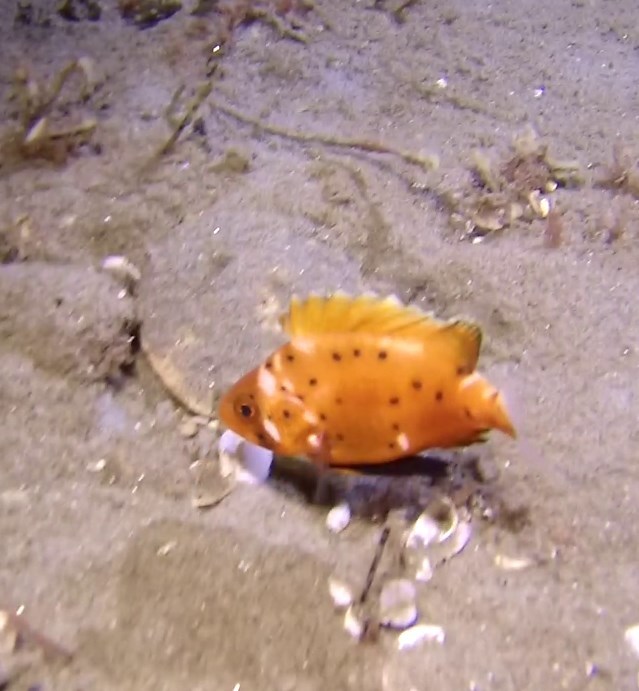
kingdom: Animalia
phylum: Chordata
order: Perciformes
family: Polyprionidae
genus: Stereolepis
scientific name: Stereolepis gigas
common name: Giant sea bass
